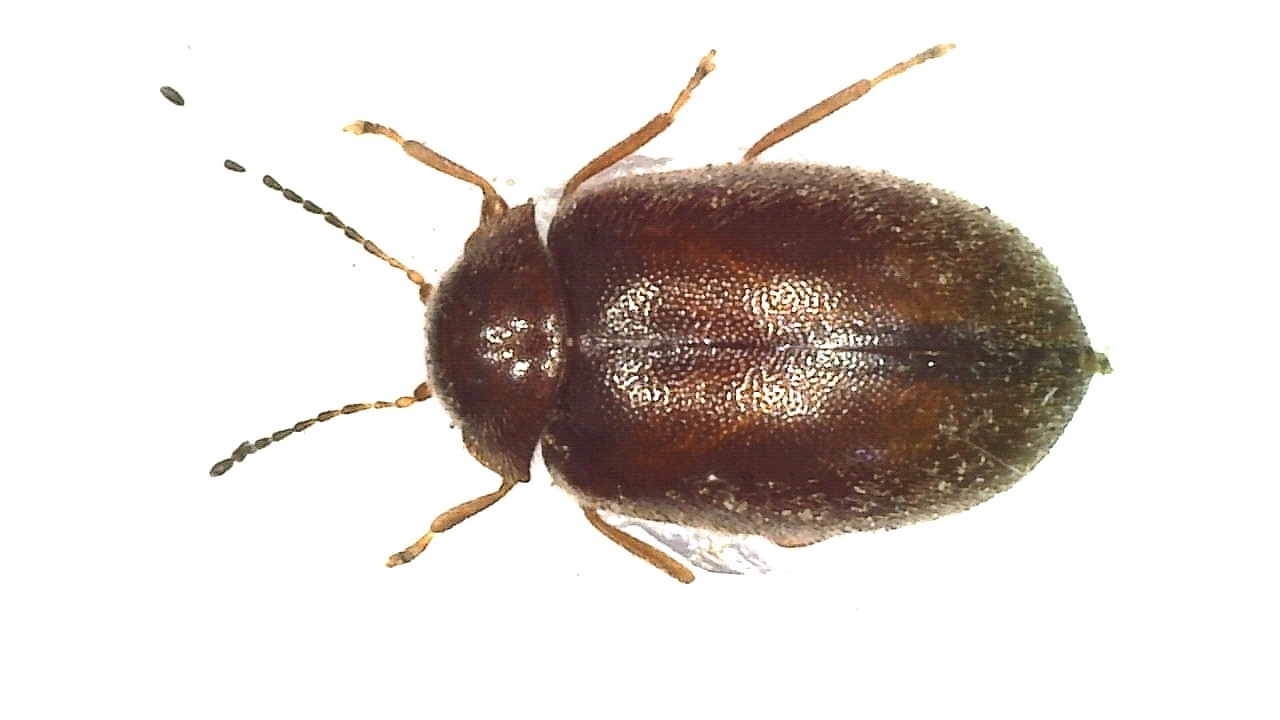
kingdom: Animalia
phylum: Arthropoda
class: Insecta
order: Coleoptera
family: Scirtidae
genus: Cyphon
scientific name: Cyphon variabilis
